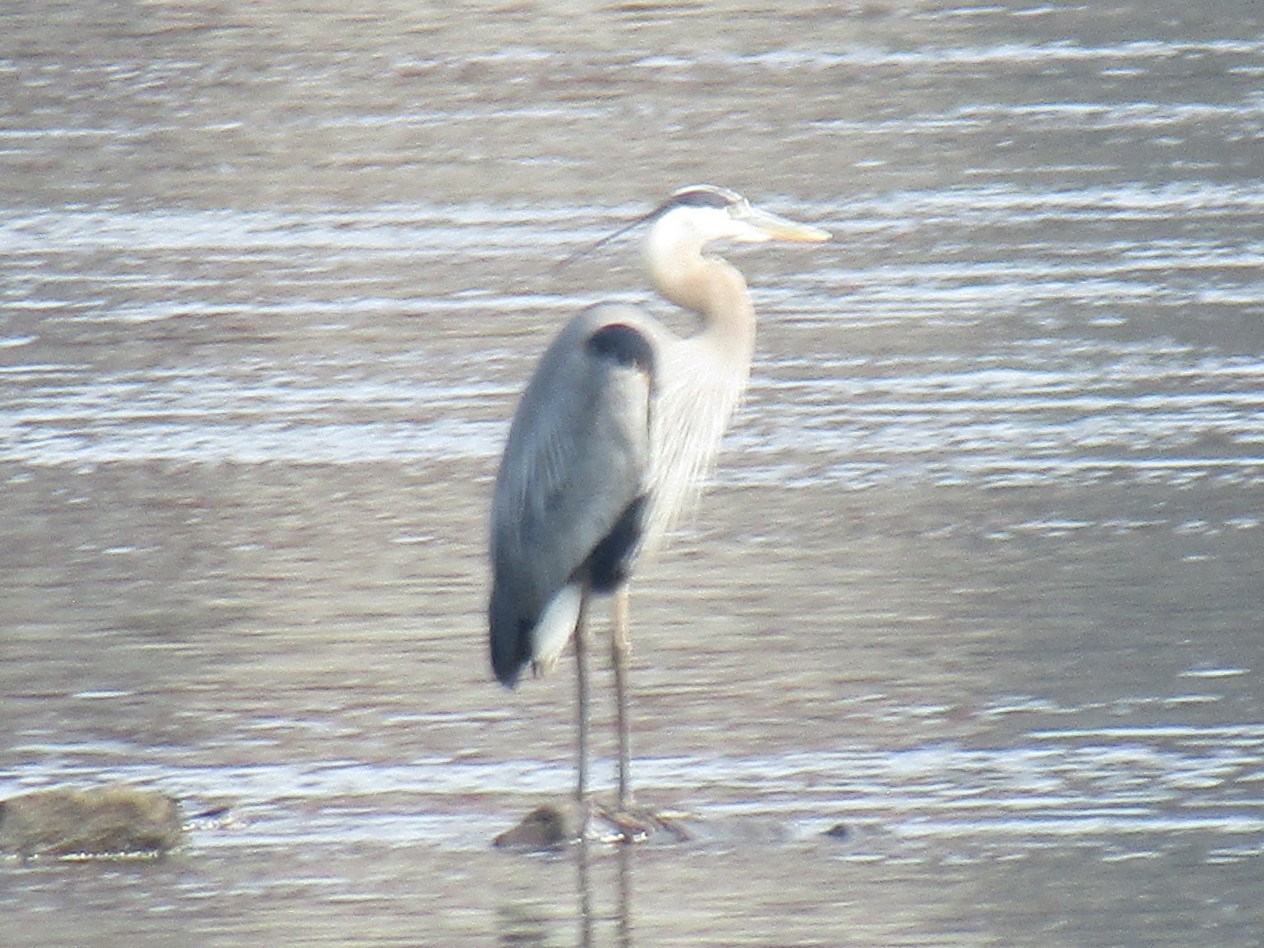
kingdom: Animalia
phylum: Chordata
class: Aves
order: Pelecaniformes
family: Ardeidae
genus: Ardea
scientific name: Ardea herodias
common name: Great blue heron
